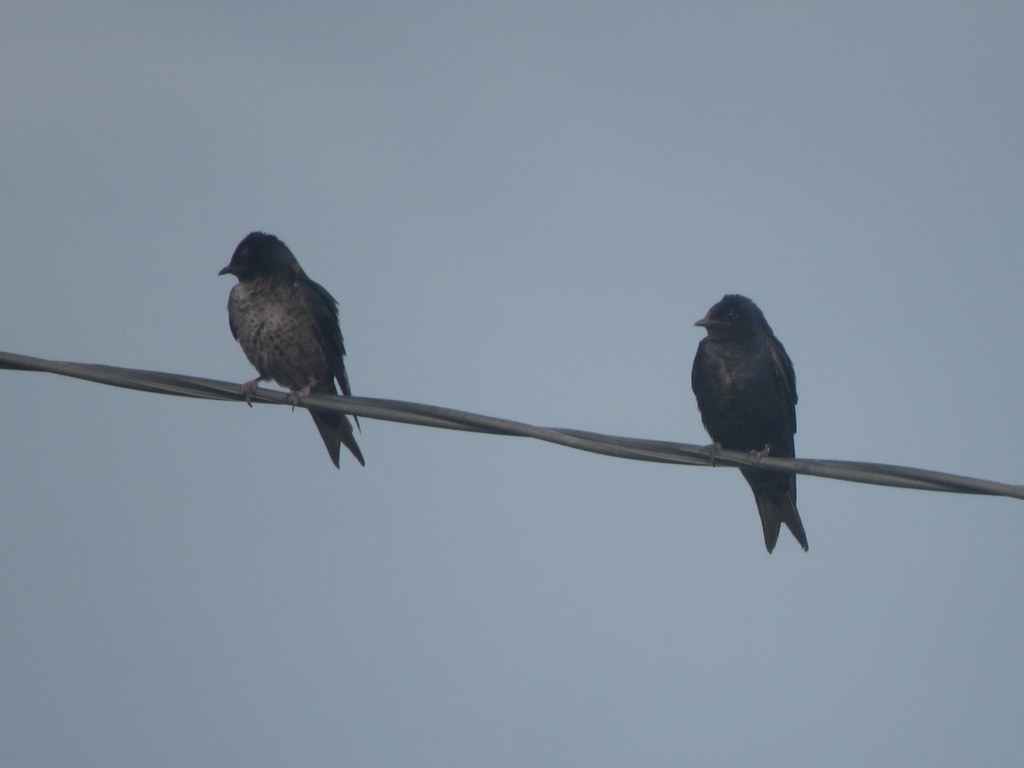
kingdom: Animalia
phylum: Chordata
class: Aves
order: Passeriformes
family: Hirundinidae
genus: Progne
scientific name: Progne elegans
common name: Southern martin
